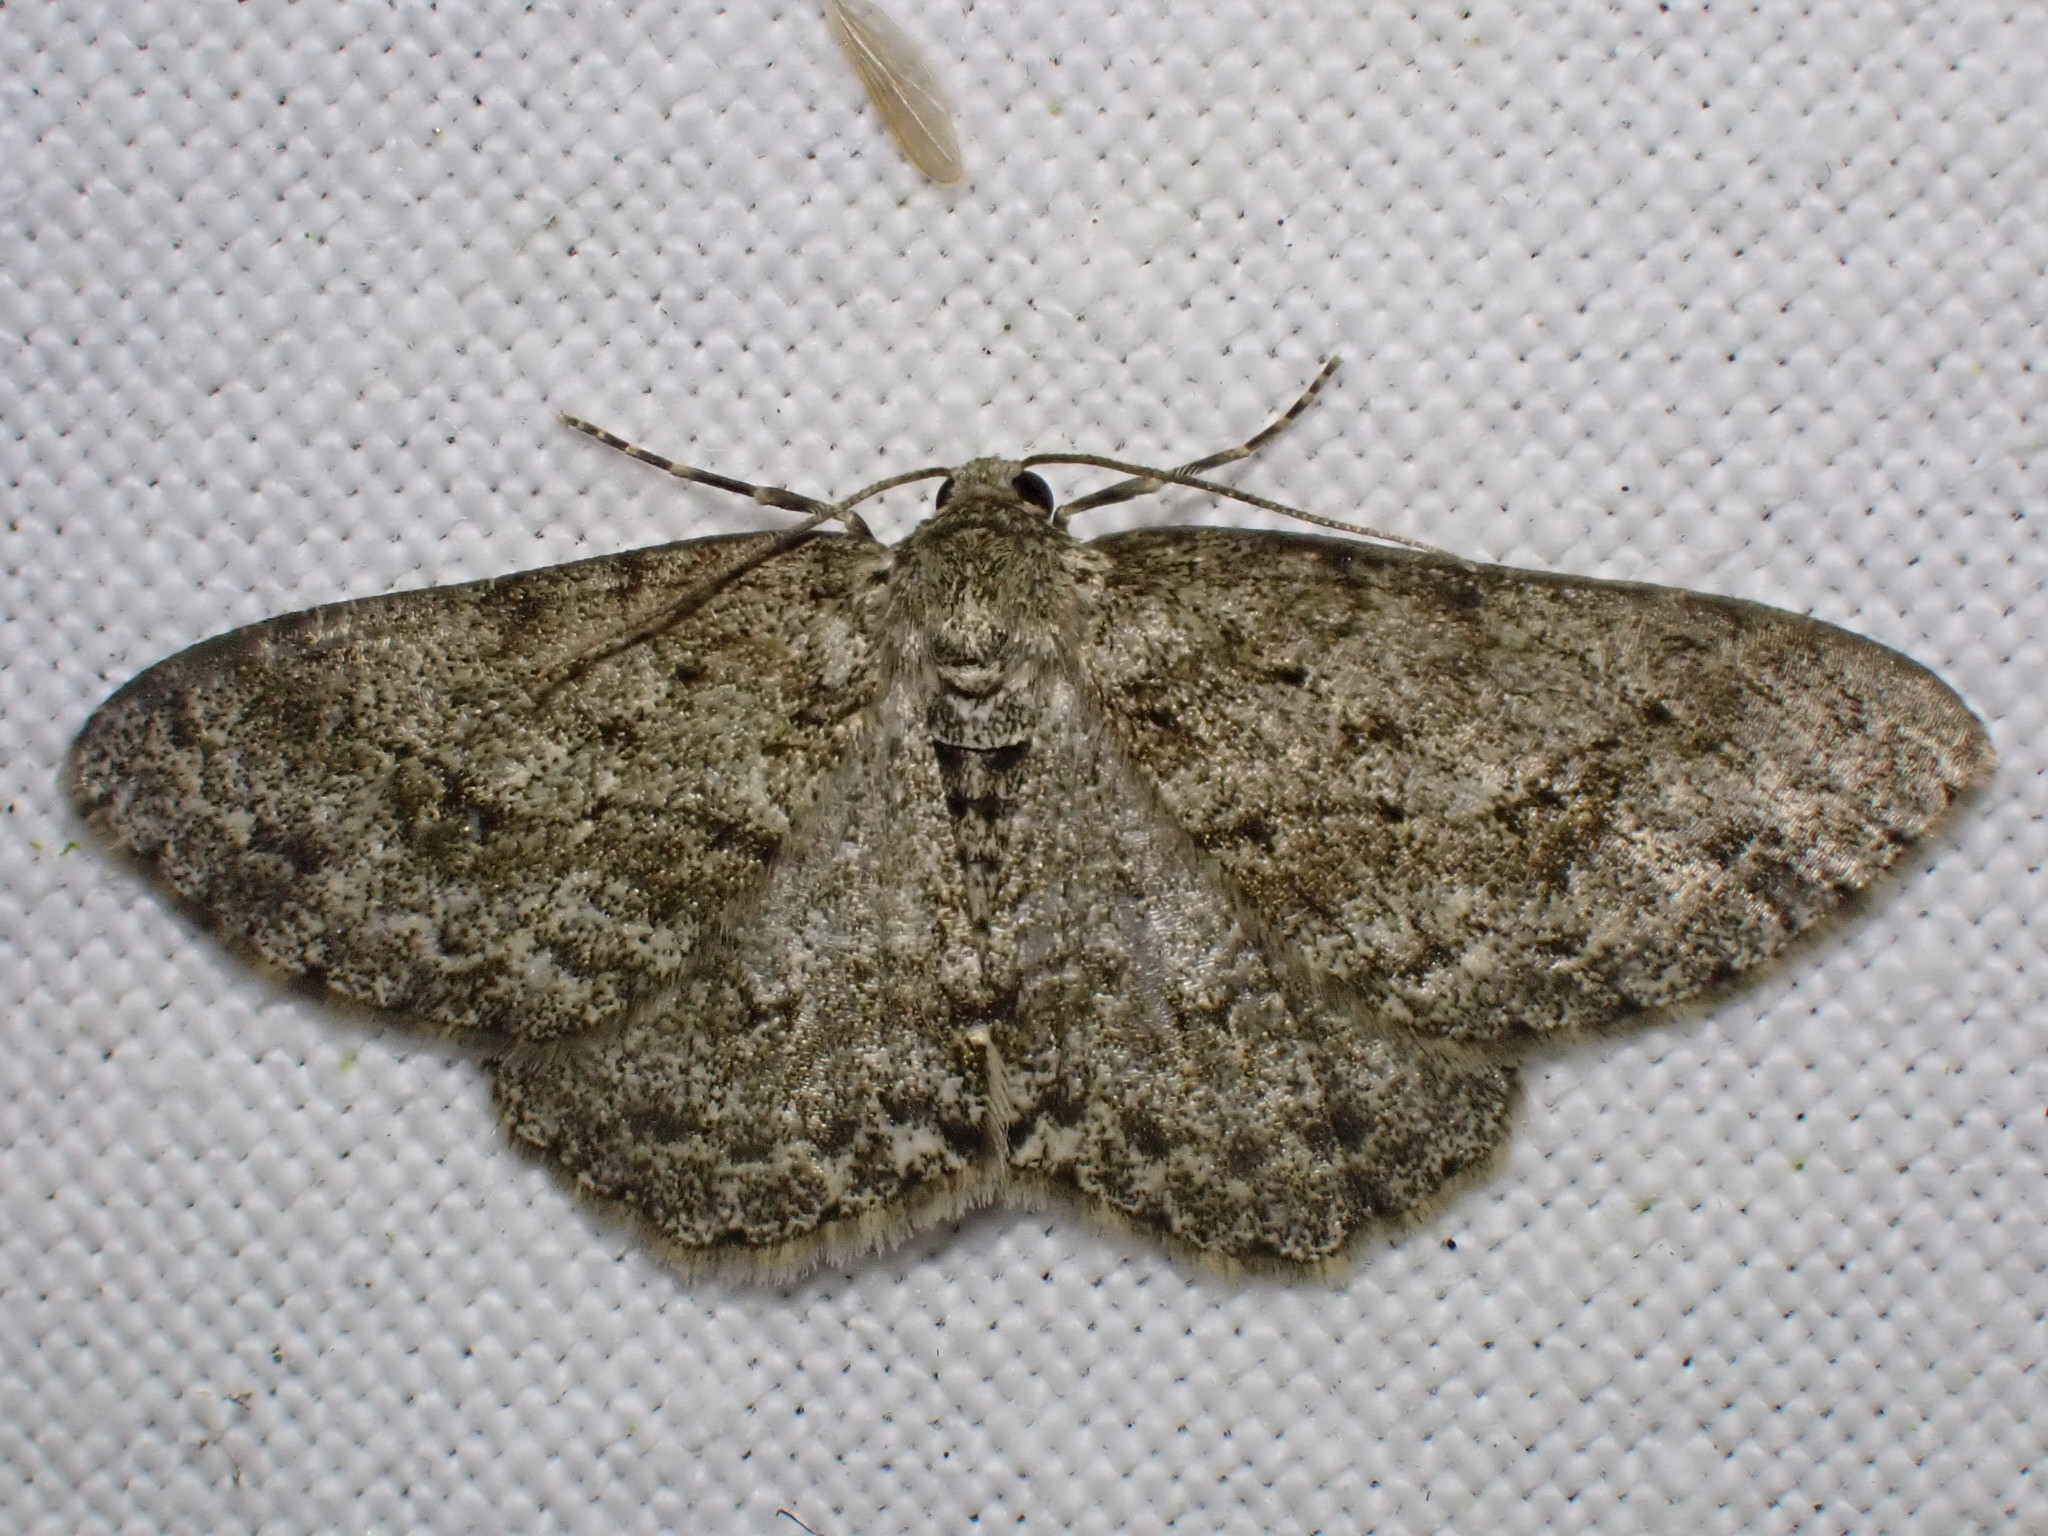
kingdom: Animalia
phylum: Arthropoda
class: Insecta
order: Lepidoptera
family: Geometridae
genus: Ectropis
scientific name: Ectropis crepuscularia
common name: Engrailed
